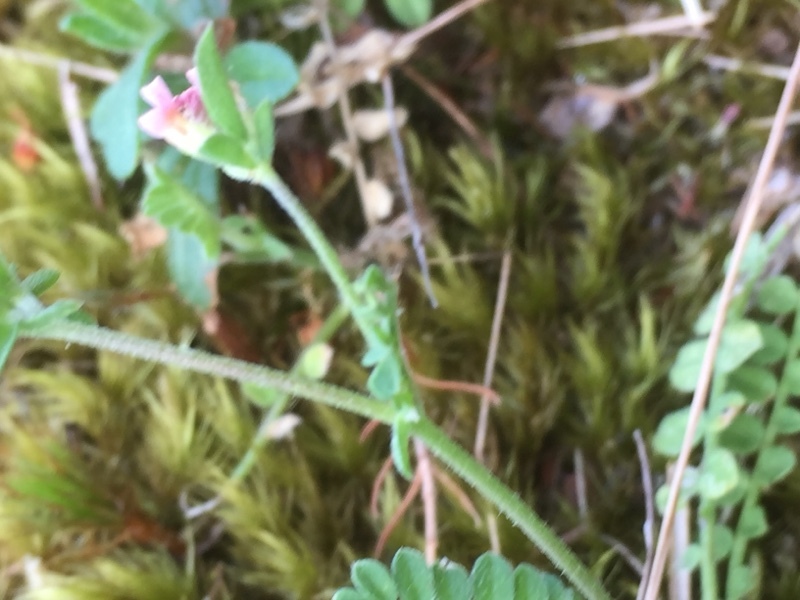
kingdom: Plantae
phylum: Tracheophyta
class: Magnoliopsida
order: Fabales
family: Fabaceae
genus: Ornithopus
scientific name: Ornithopus perpusillus
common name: Bird's-foot
